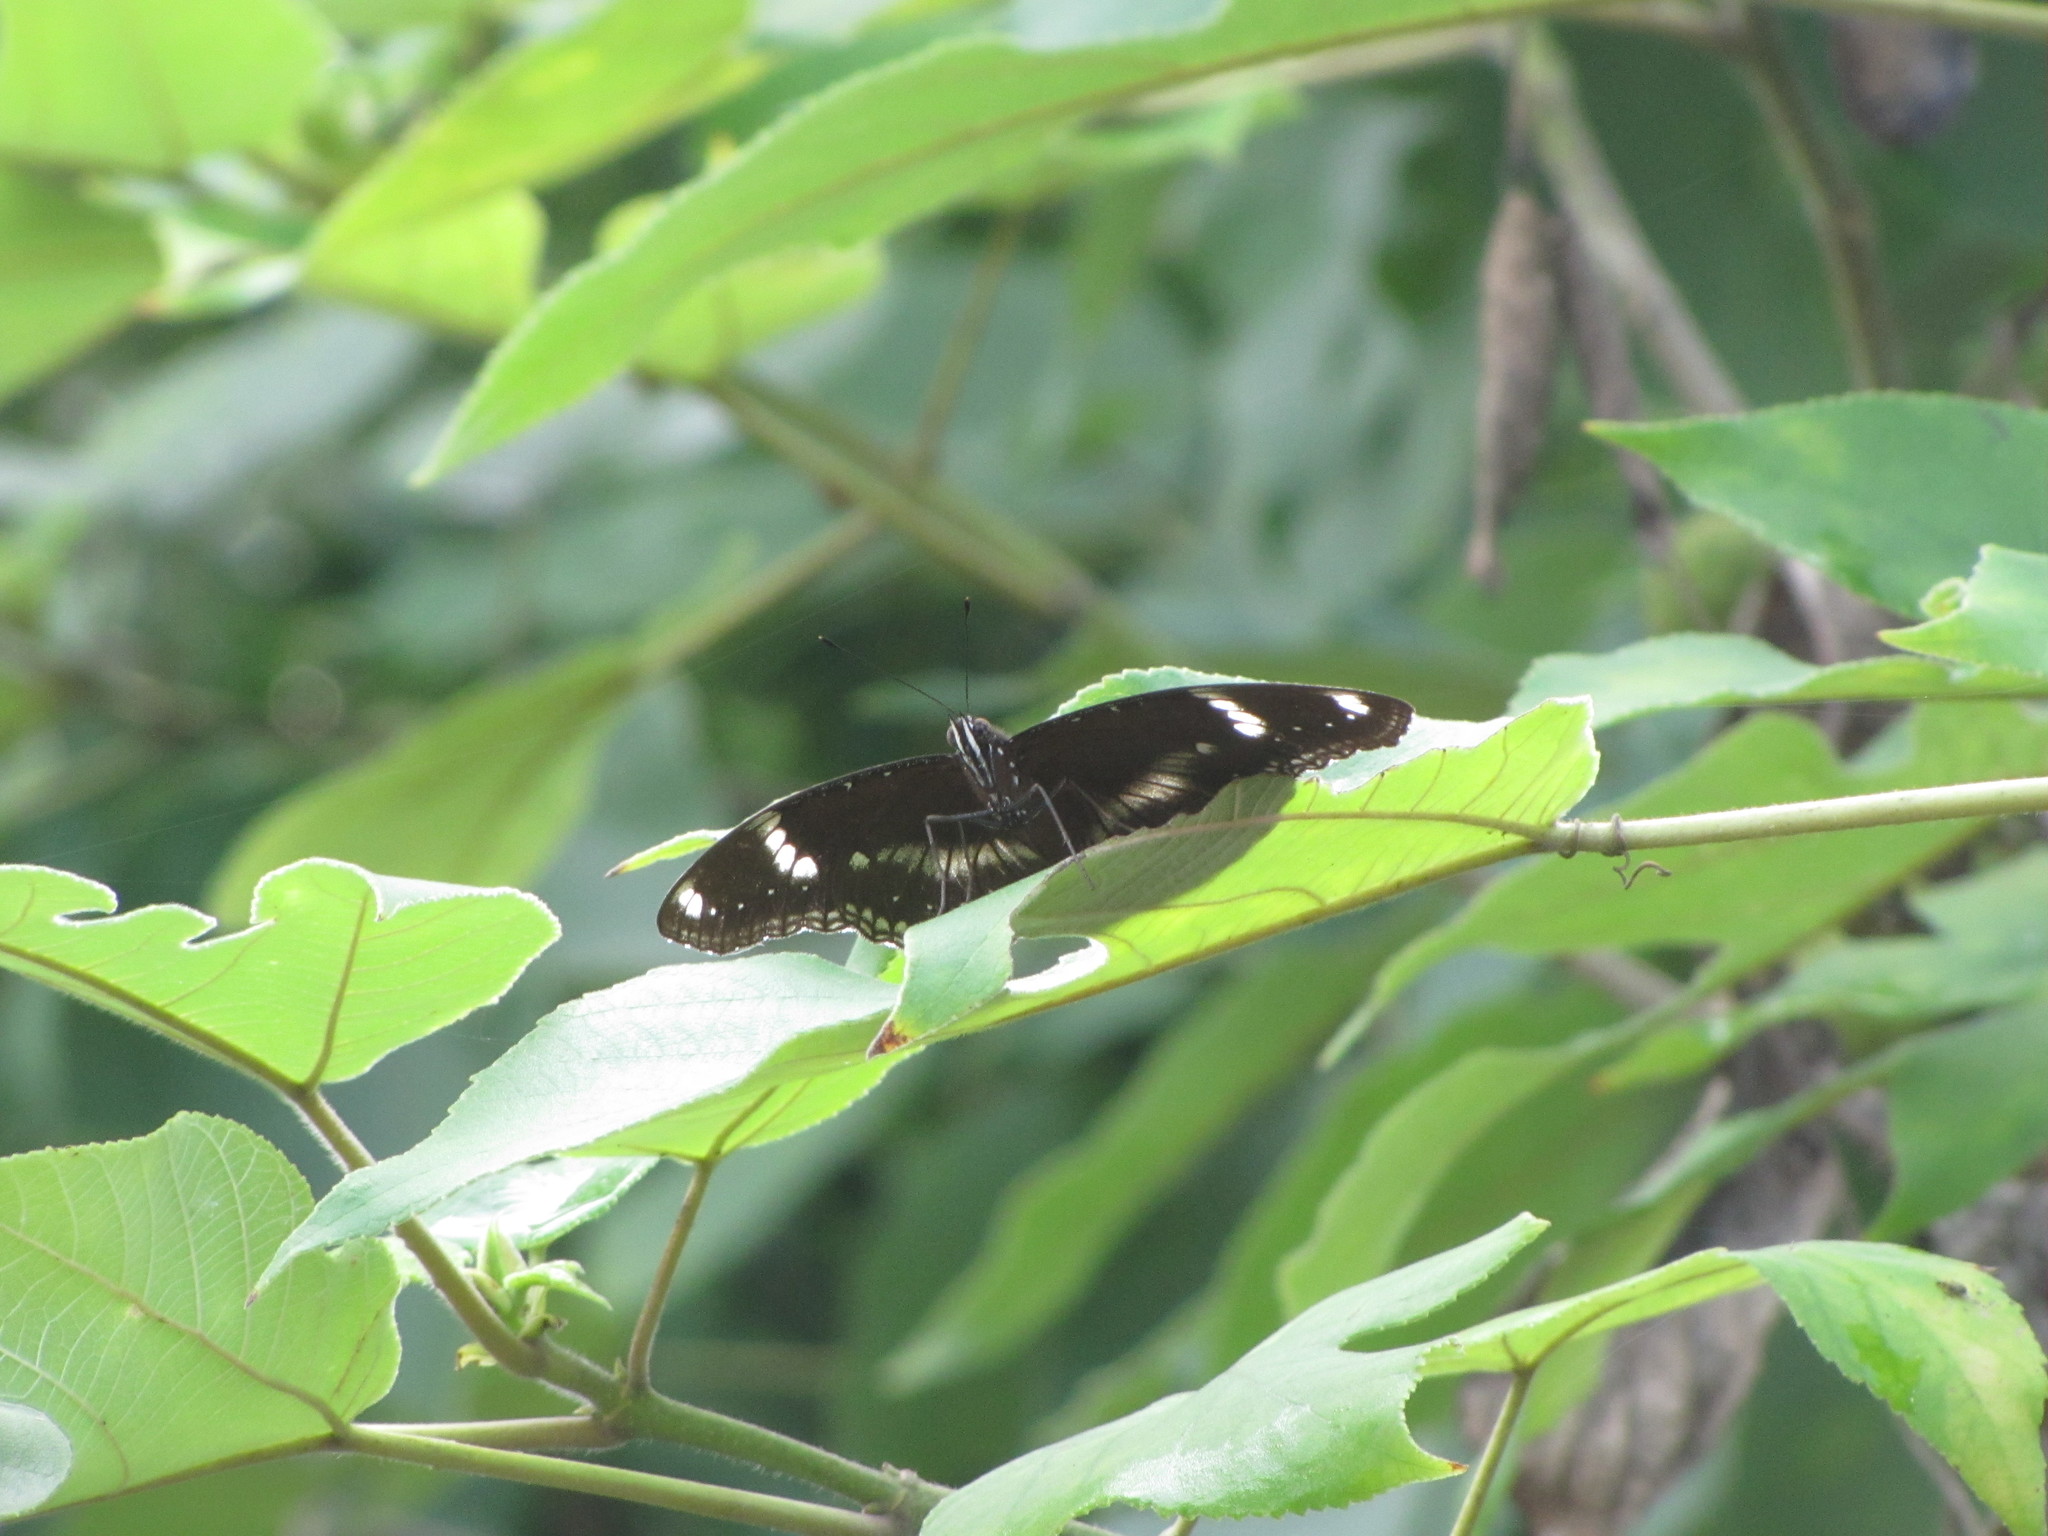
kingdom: Animalia
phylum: Arthropoda
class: Insecta
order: Lepidoptera
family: Nymphalidae
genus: Hypolimnas
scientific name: Hypolimnas bolina
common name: Great eggfly
